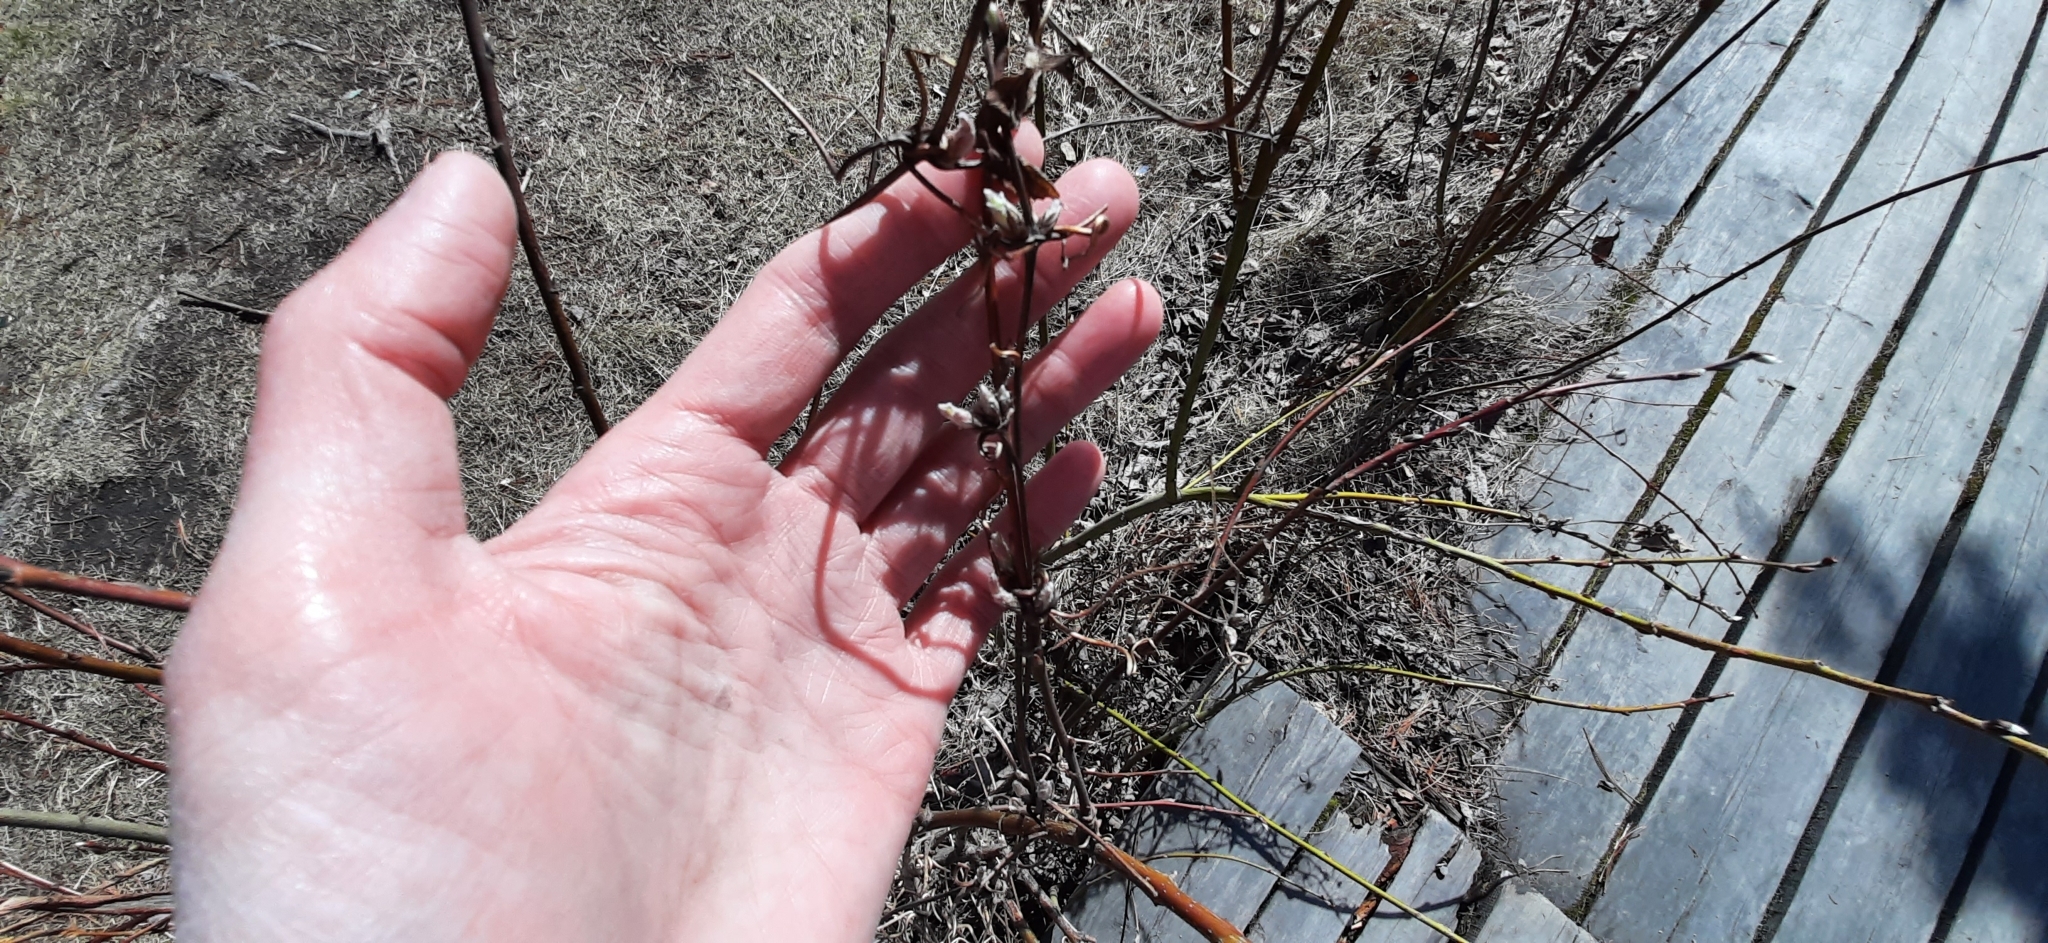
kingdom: Plantae
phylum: Tracheophyta
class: Magnoliopsida
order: Ranunculales
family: Ranunculaceae
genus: Clematis
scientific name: Clematis sibirica
